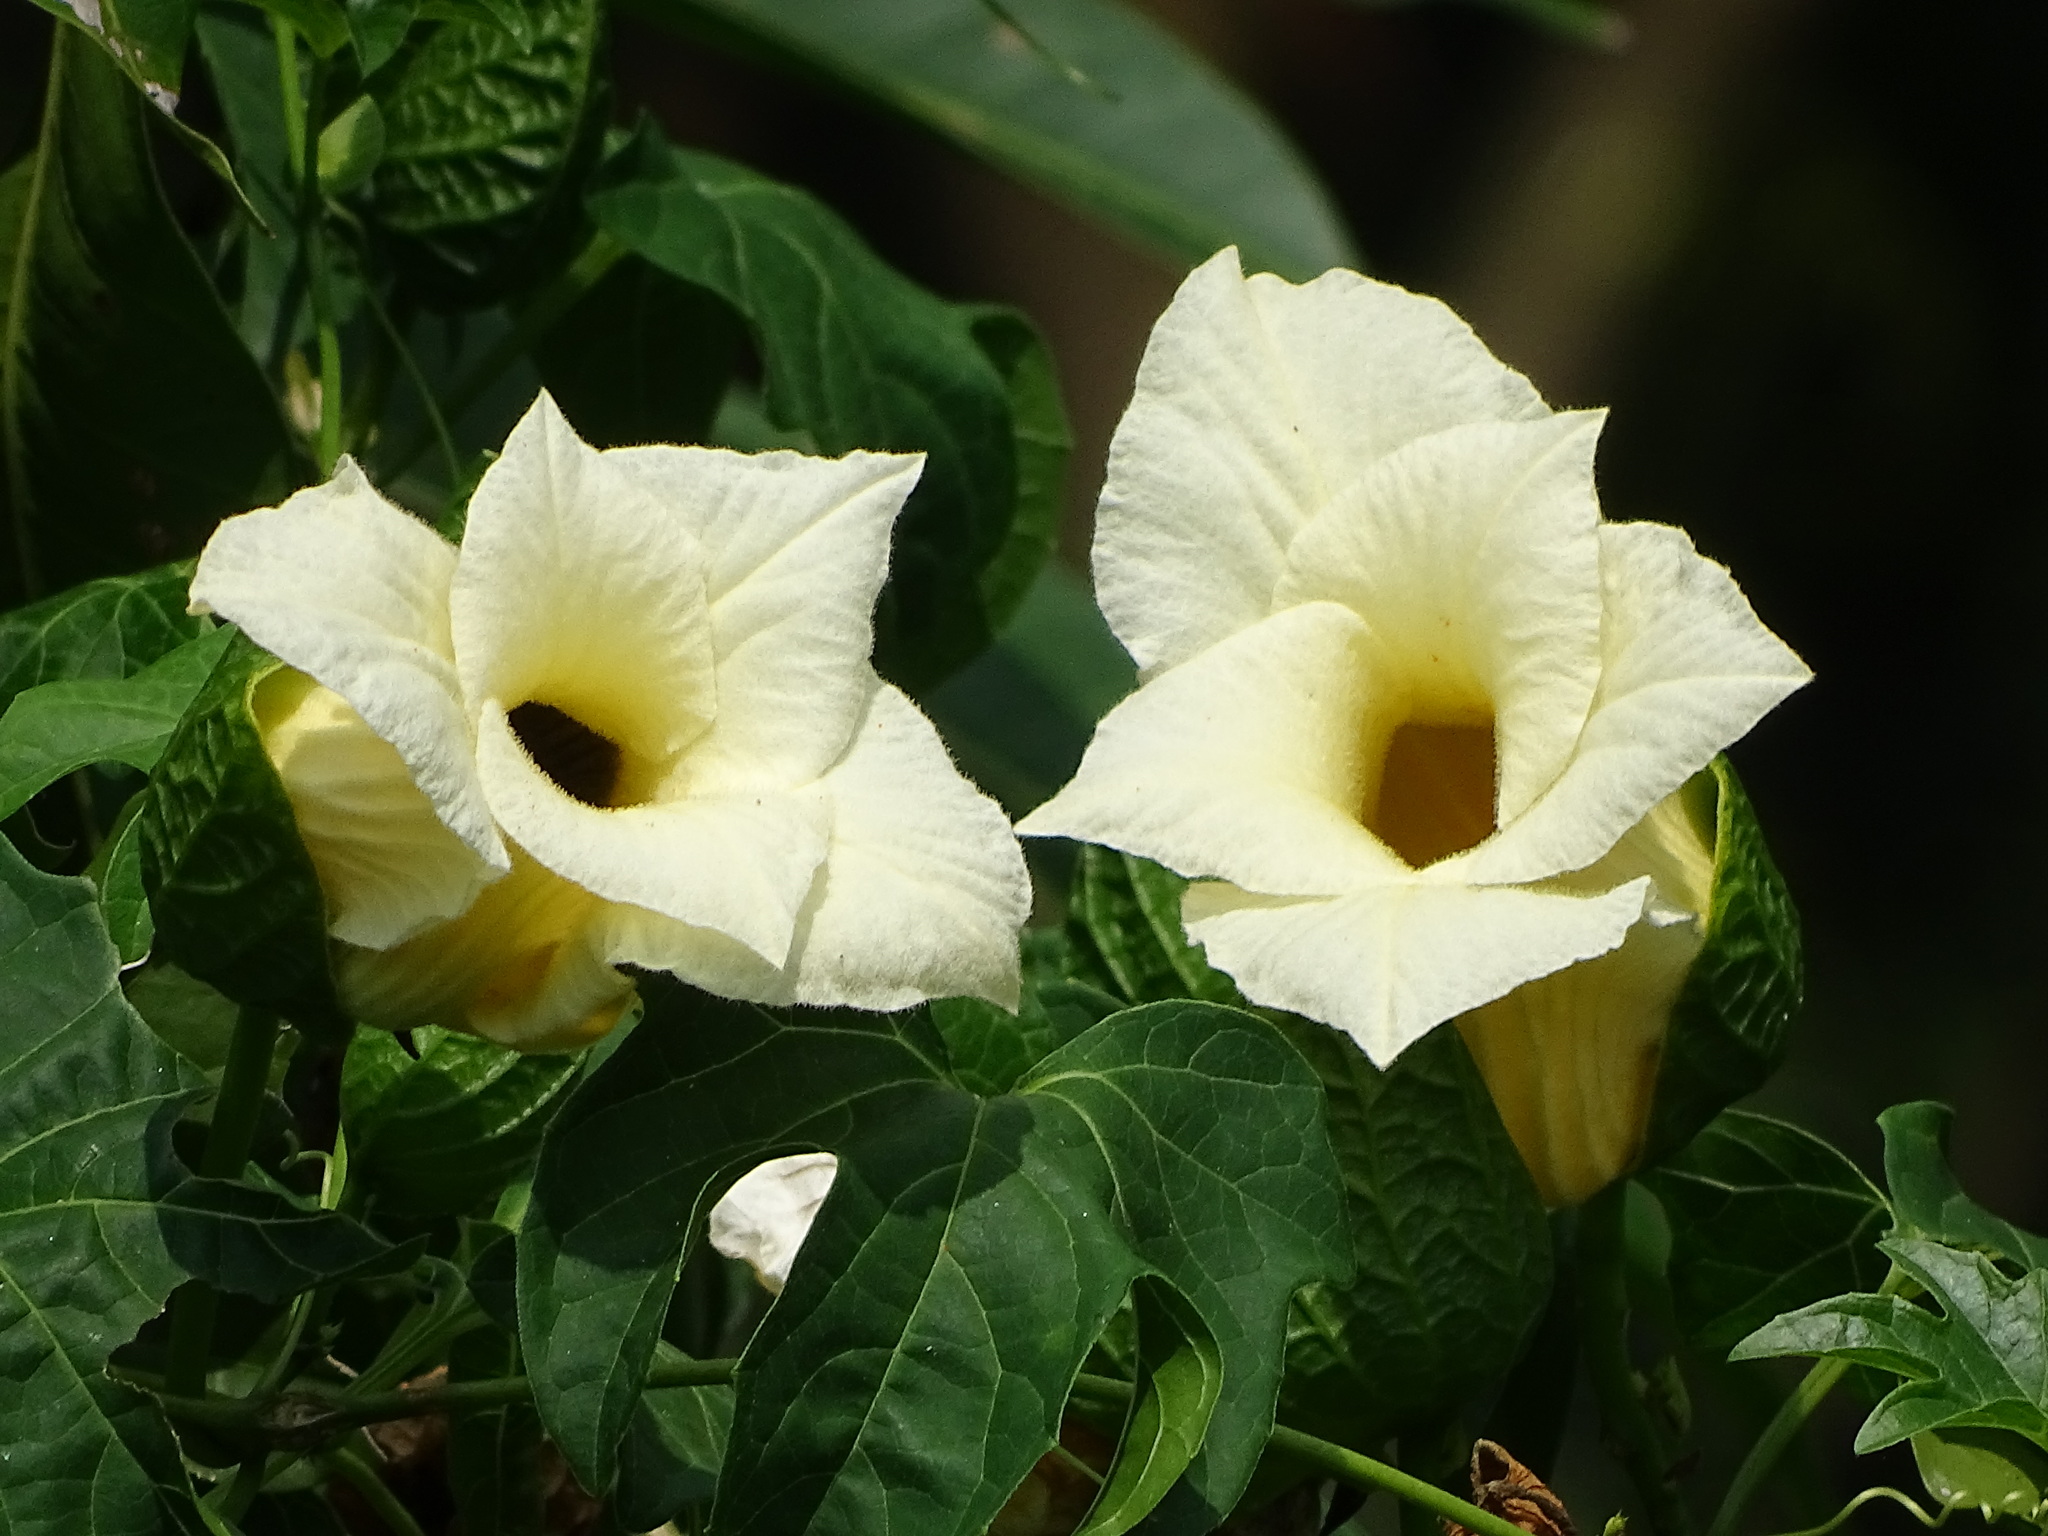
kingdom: Plantae
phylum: Tracheophyta
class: Magnoliopsida
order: Cucurbitales
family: Cucurbitaceae
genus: Momordica
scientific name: Momordica cochinchinensis
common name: Chinese bitter-cucumber
